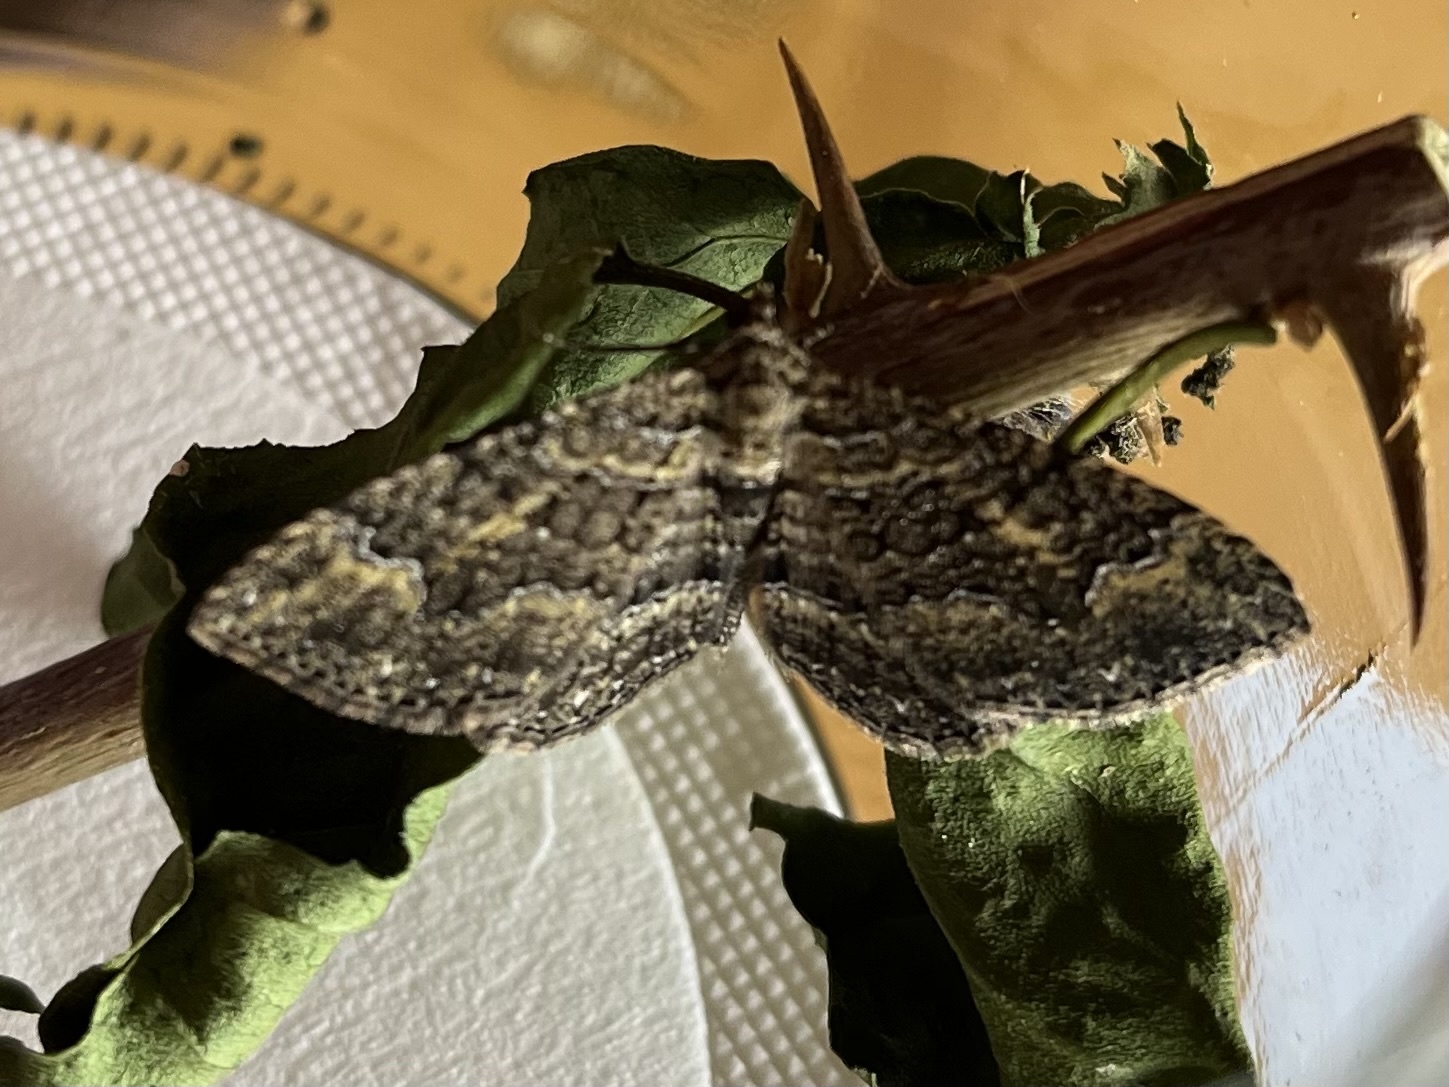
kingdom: Animalia
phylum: Arthropoda
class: Insecta
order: Lepidoptera
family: Geometridae
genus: Disclisioprocta
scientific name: Disclisioprocta natalata
